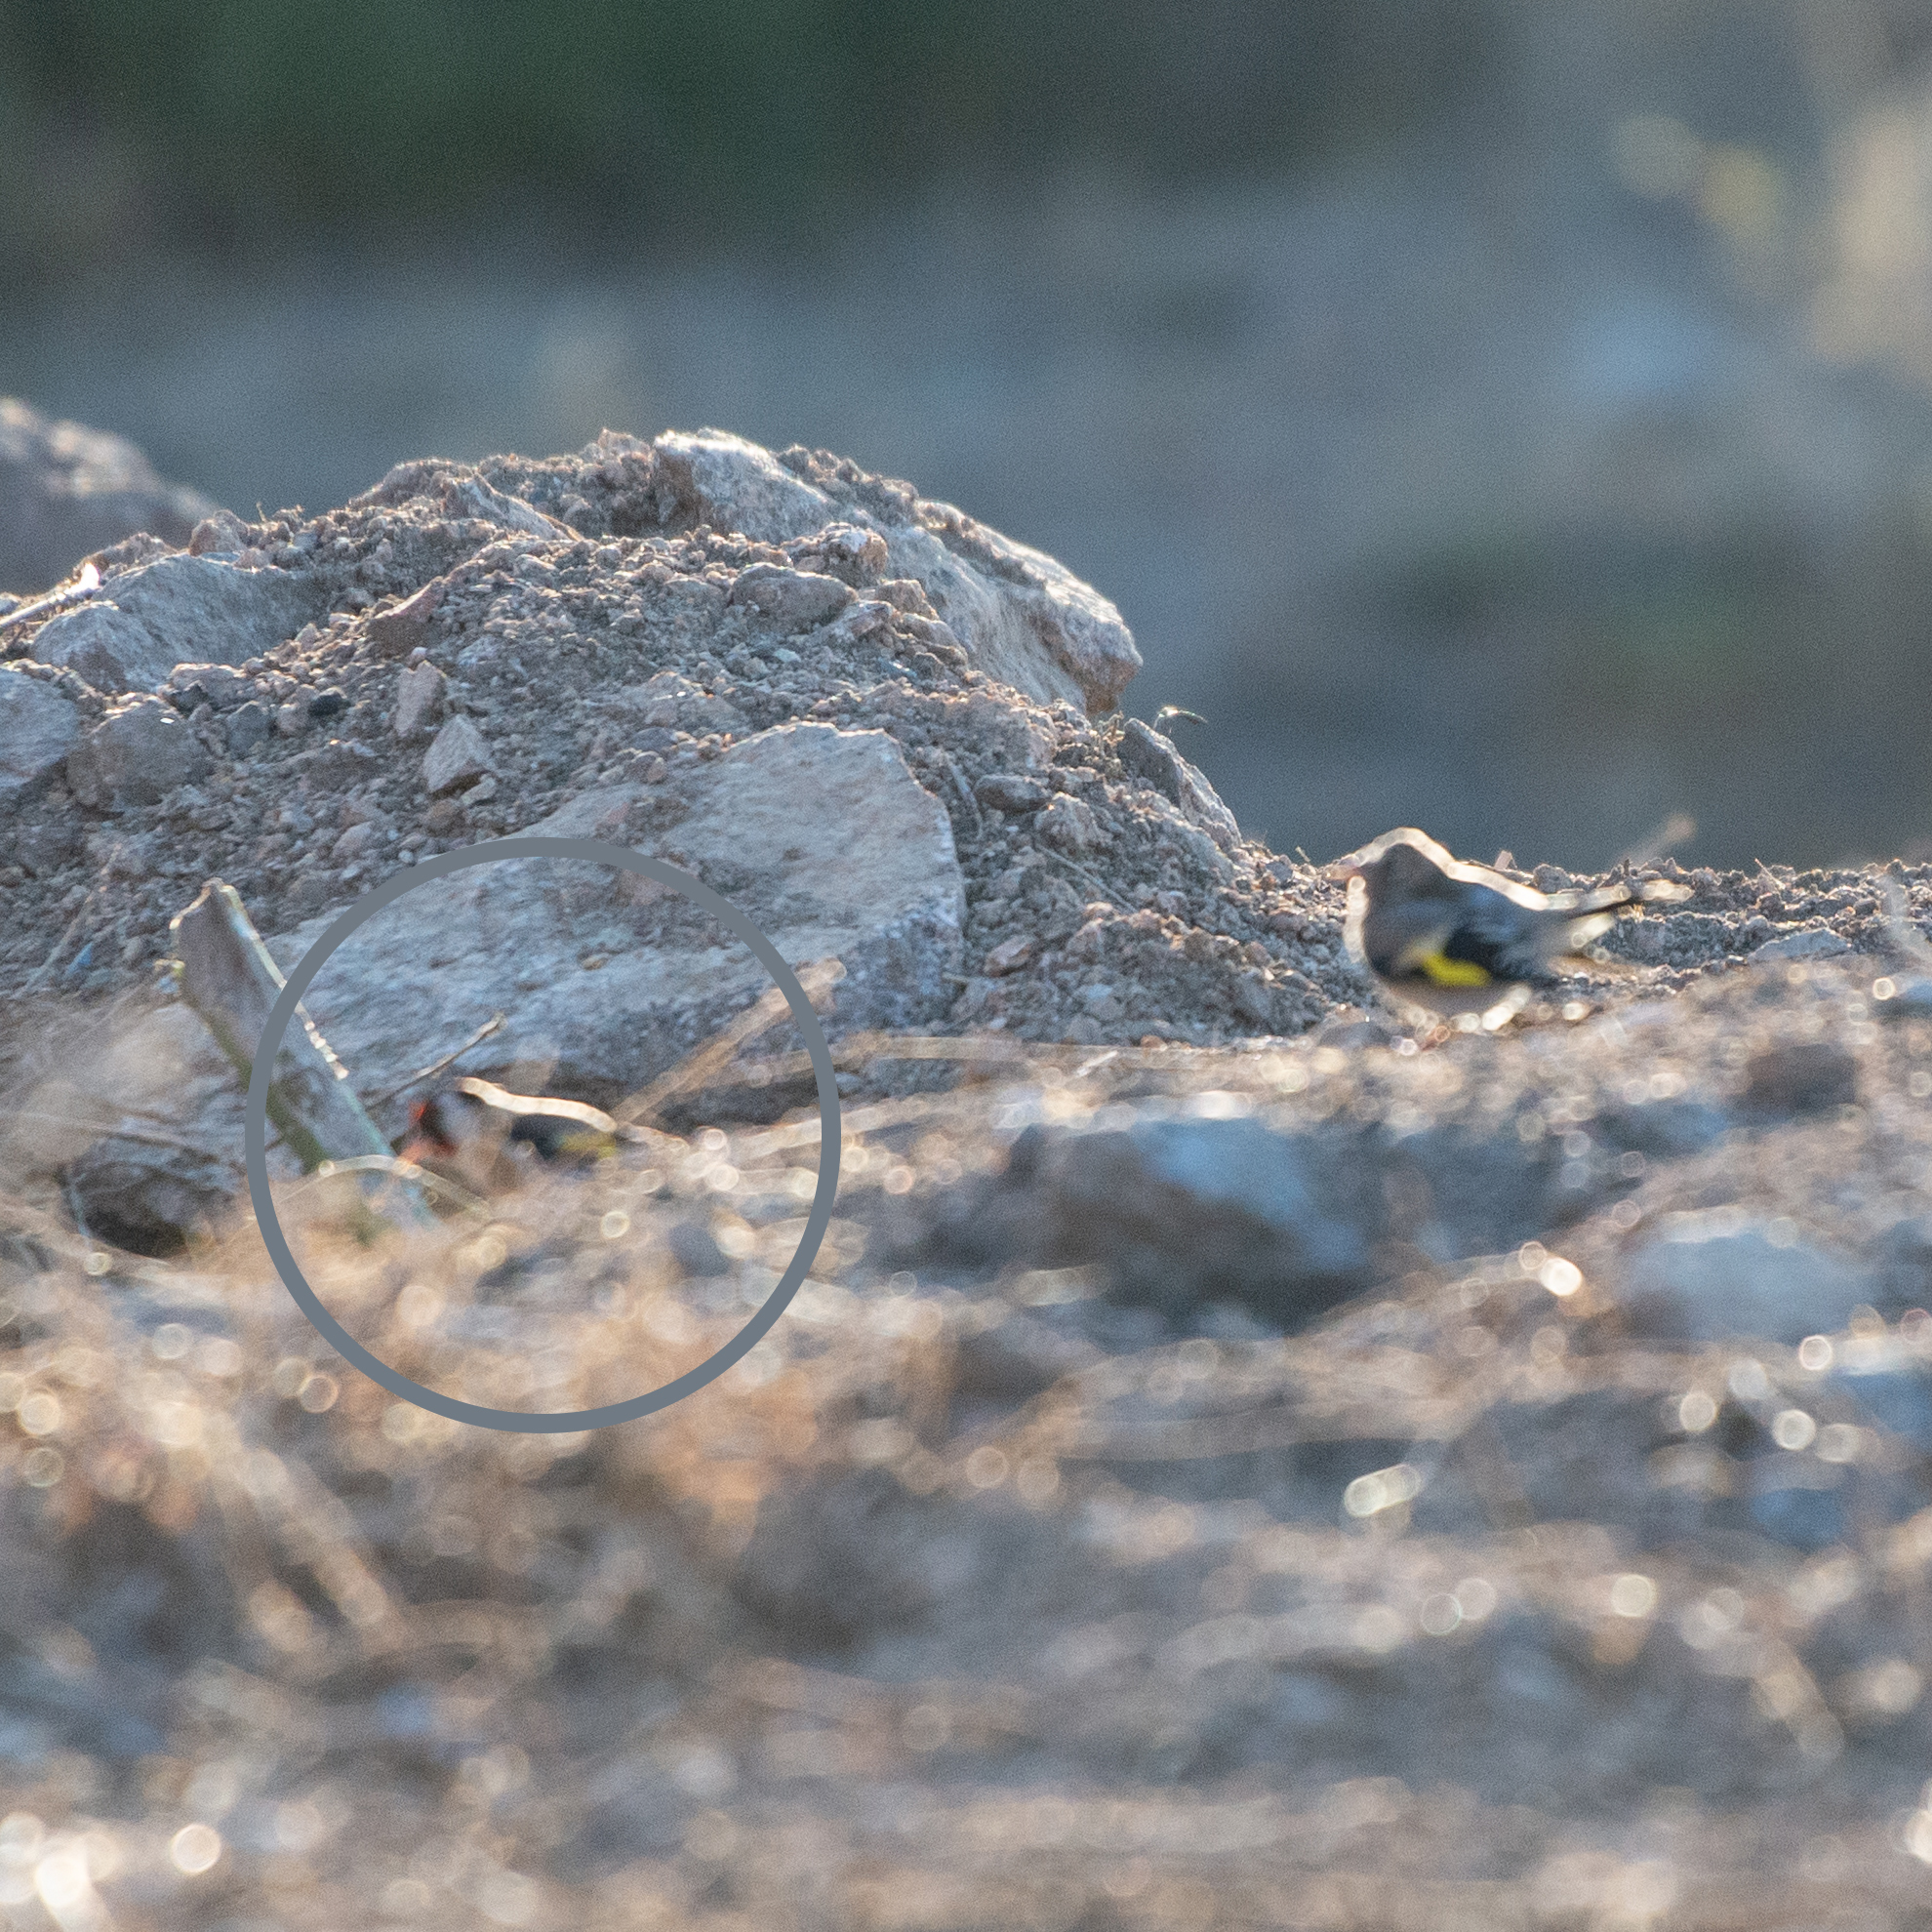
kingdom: Animalia
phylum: Chordata
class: Aves
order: Passeriformes
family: Fringillidae
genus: Carduelis
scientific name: Carduelis carduelis
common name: European goldfinch
